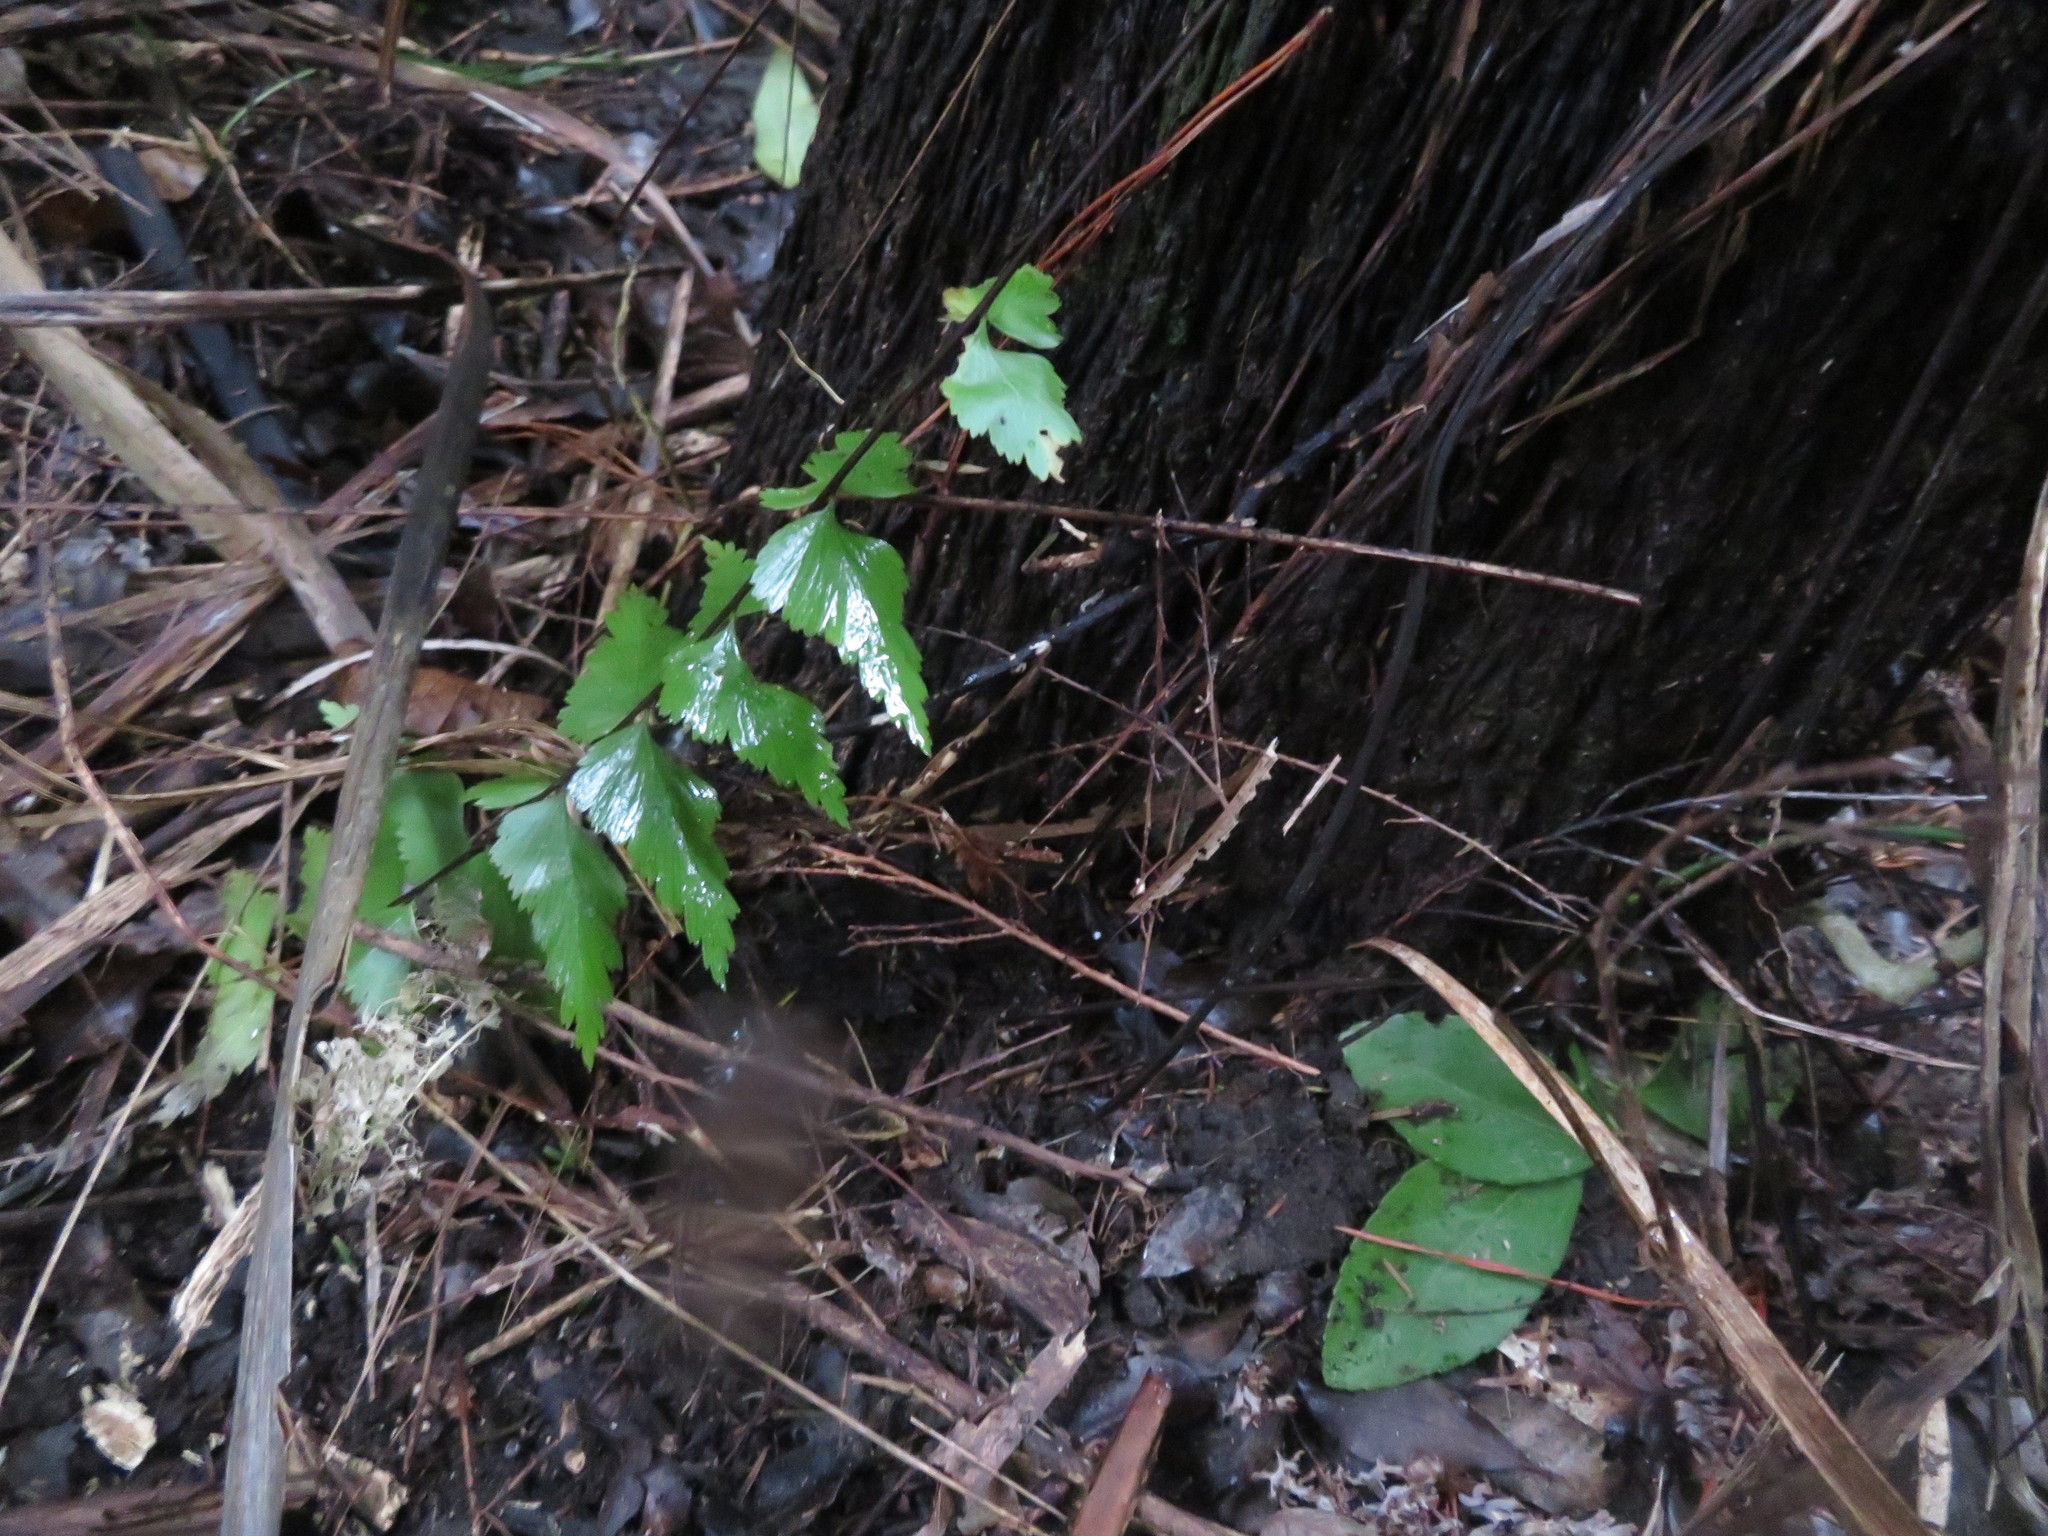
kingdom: Plantae
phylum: Tracheophyta
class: Polypodiopsida
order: Polypodiales
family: Aspleniaceae
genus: Asplenium
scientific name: Asplenium polyodon
